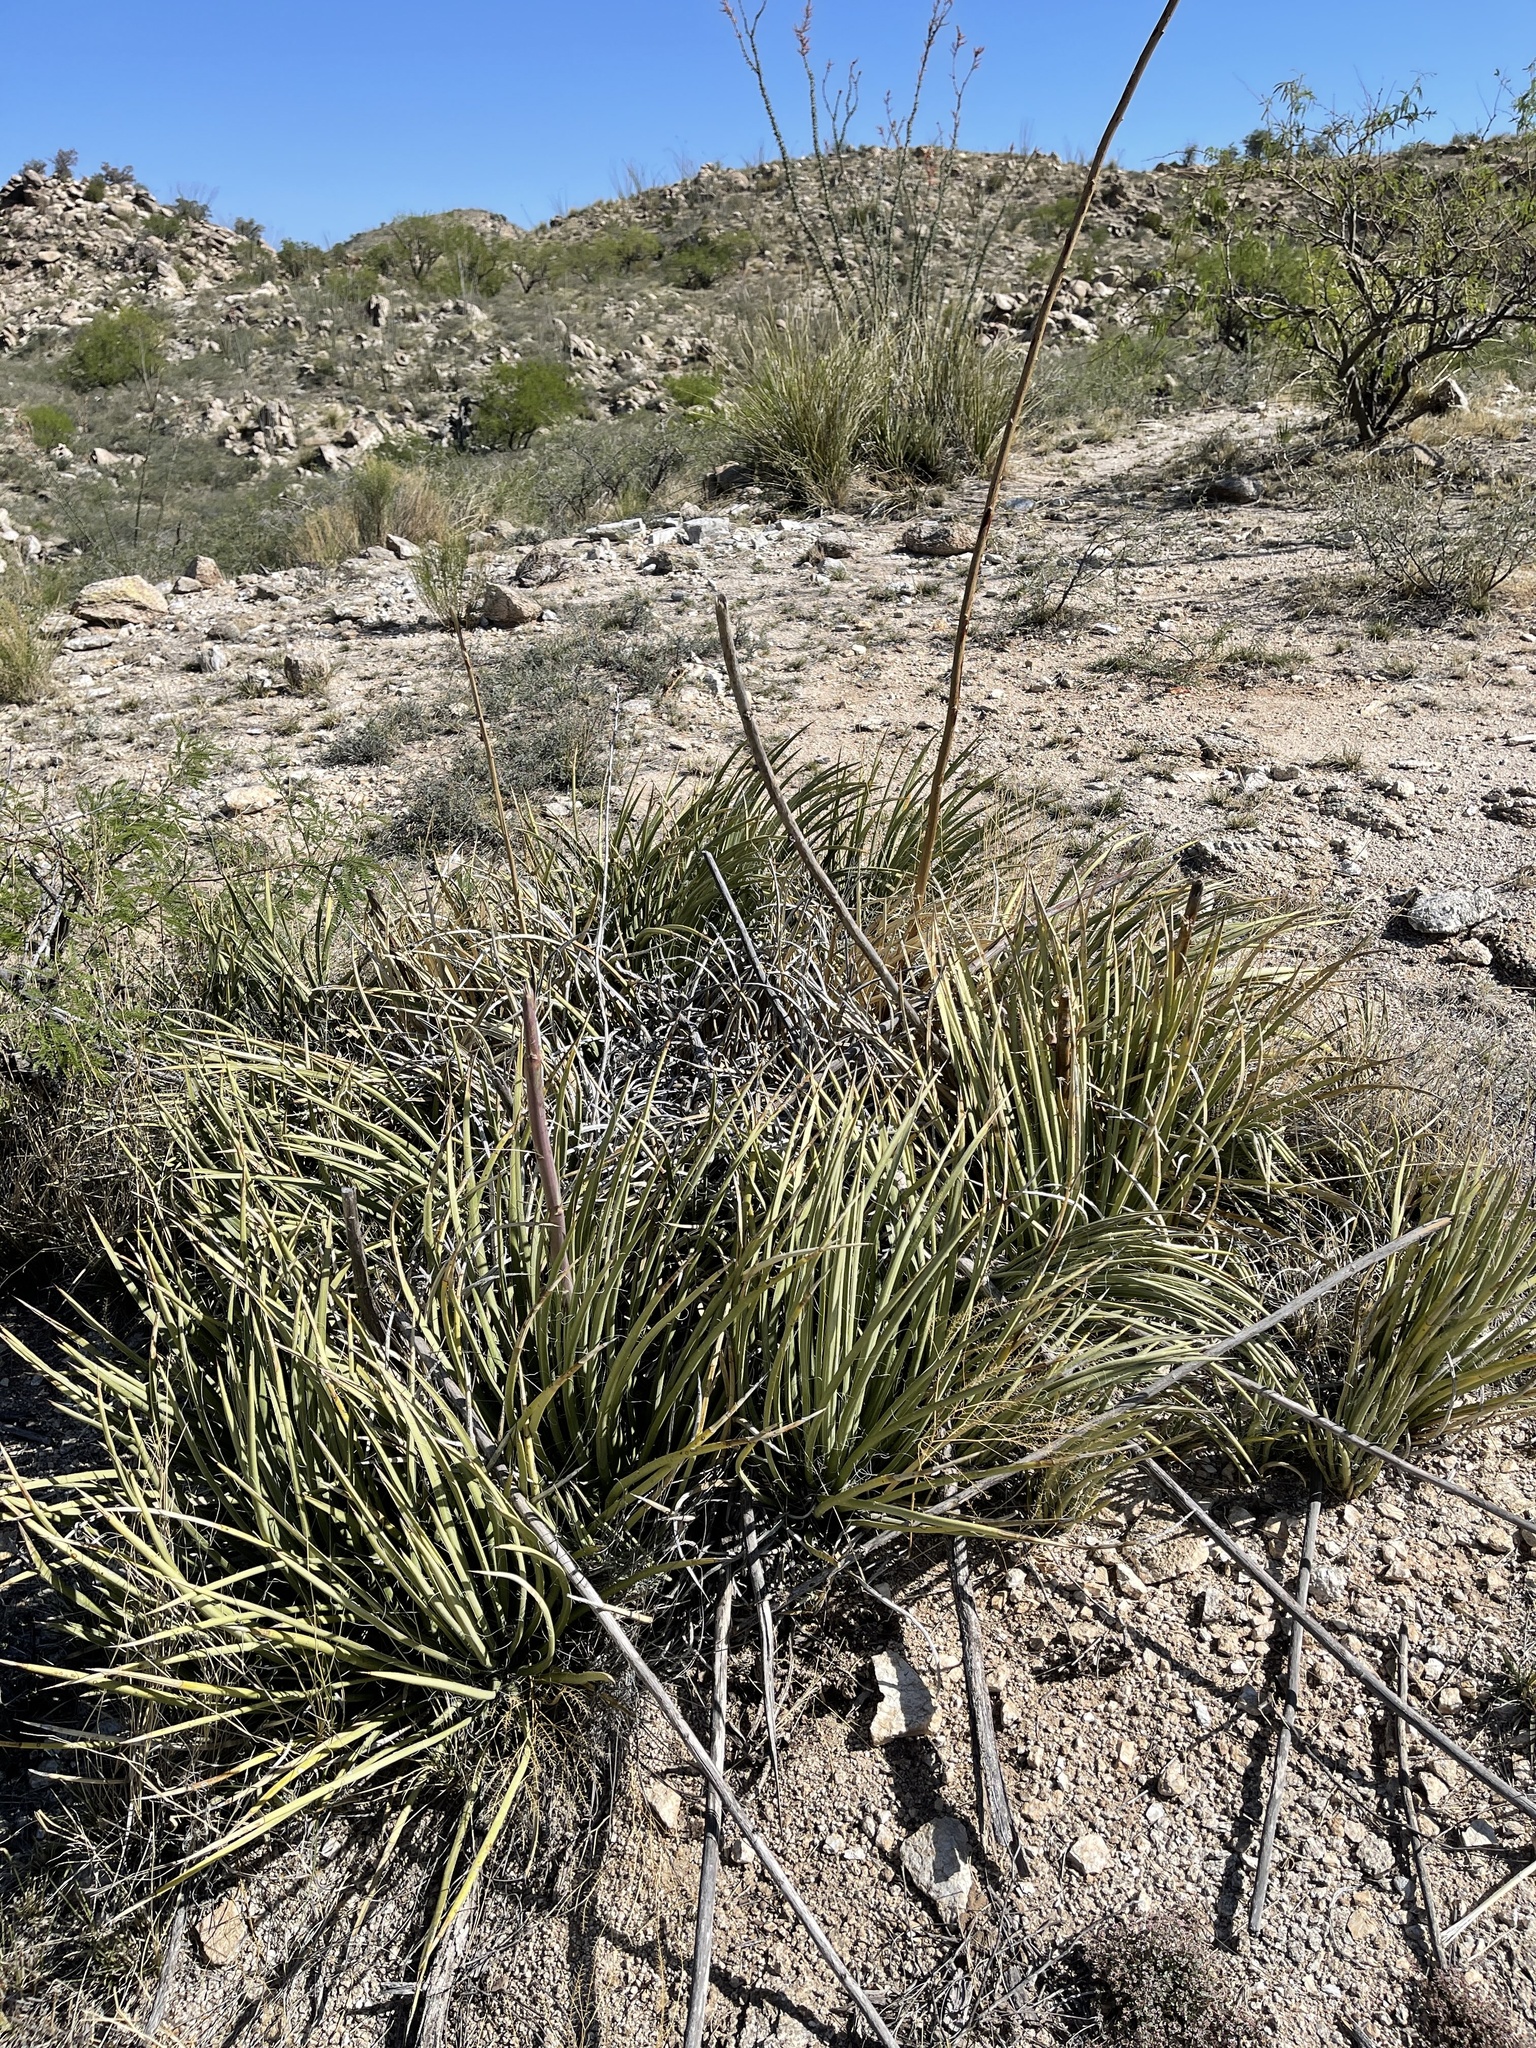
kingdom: Plantae
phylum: Tracheophyta
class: Liliopsida
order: Asparagales
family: Asparagaceae
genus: Agave
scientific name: Agave schottii
